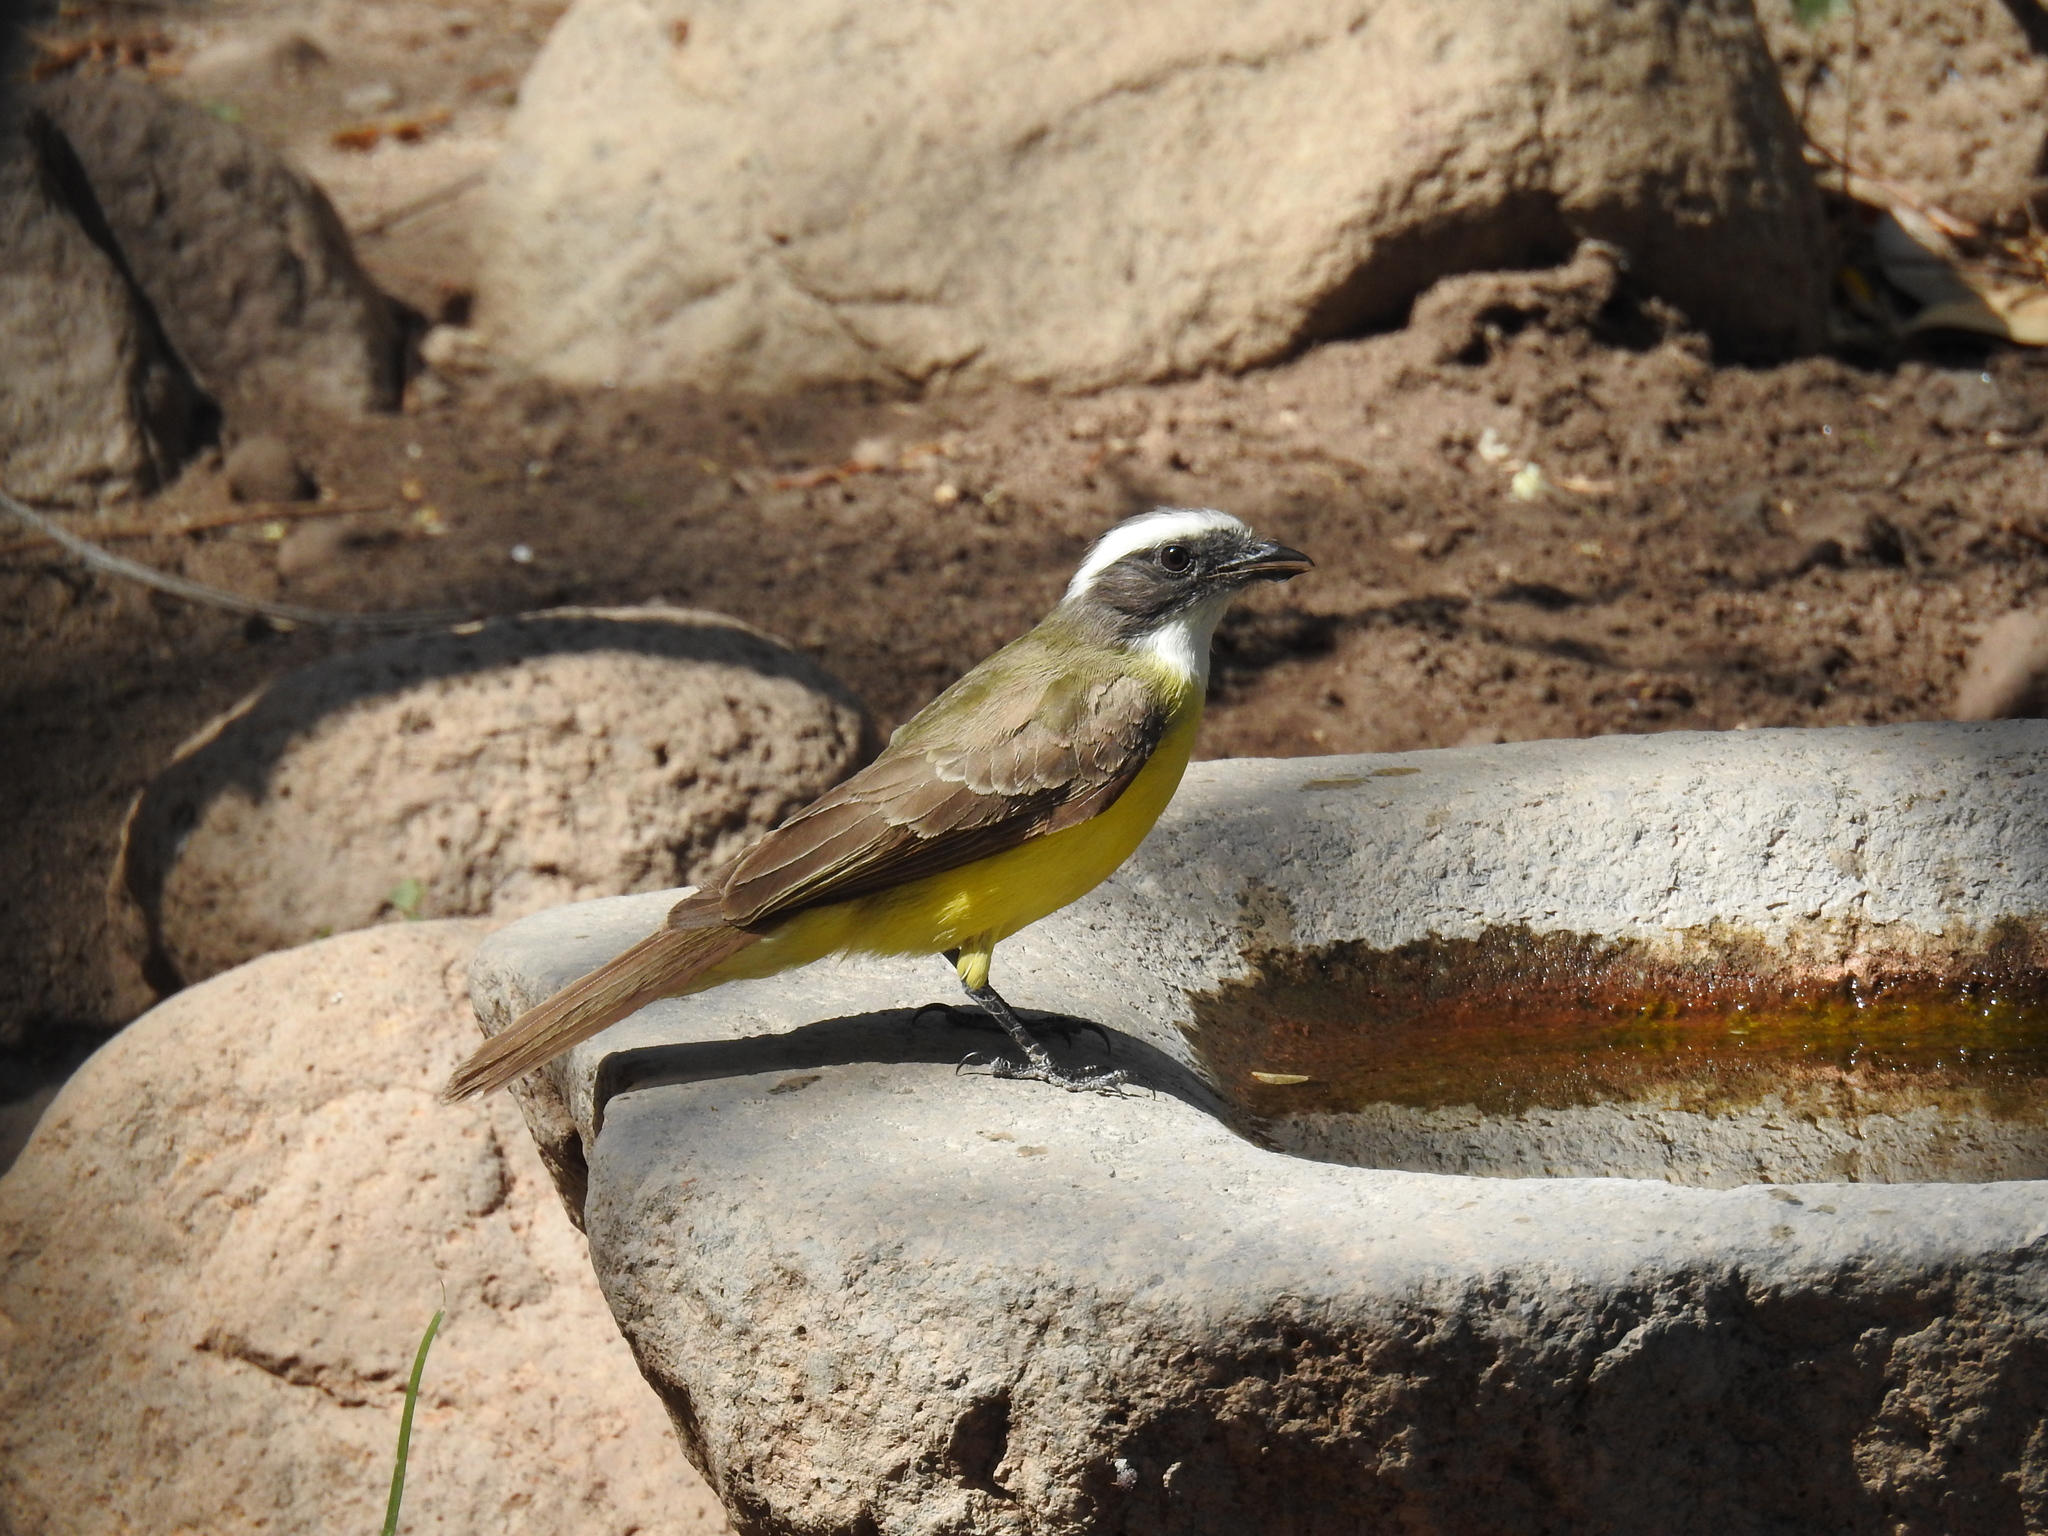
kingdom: Animalia
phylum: Chordata
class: Aves
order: Passeriformes
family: Tyrannidae
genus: Myiozetetes
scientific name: Myiozetetes similis
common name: Social flycatcher
